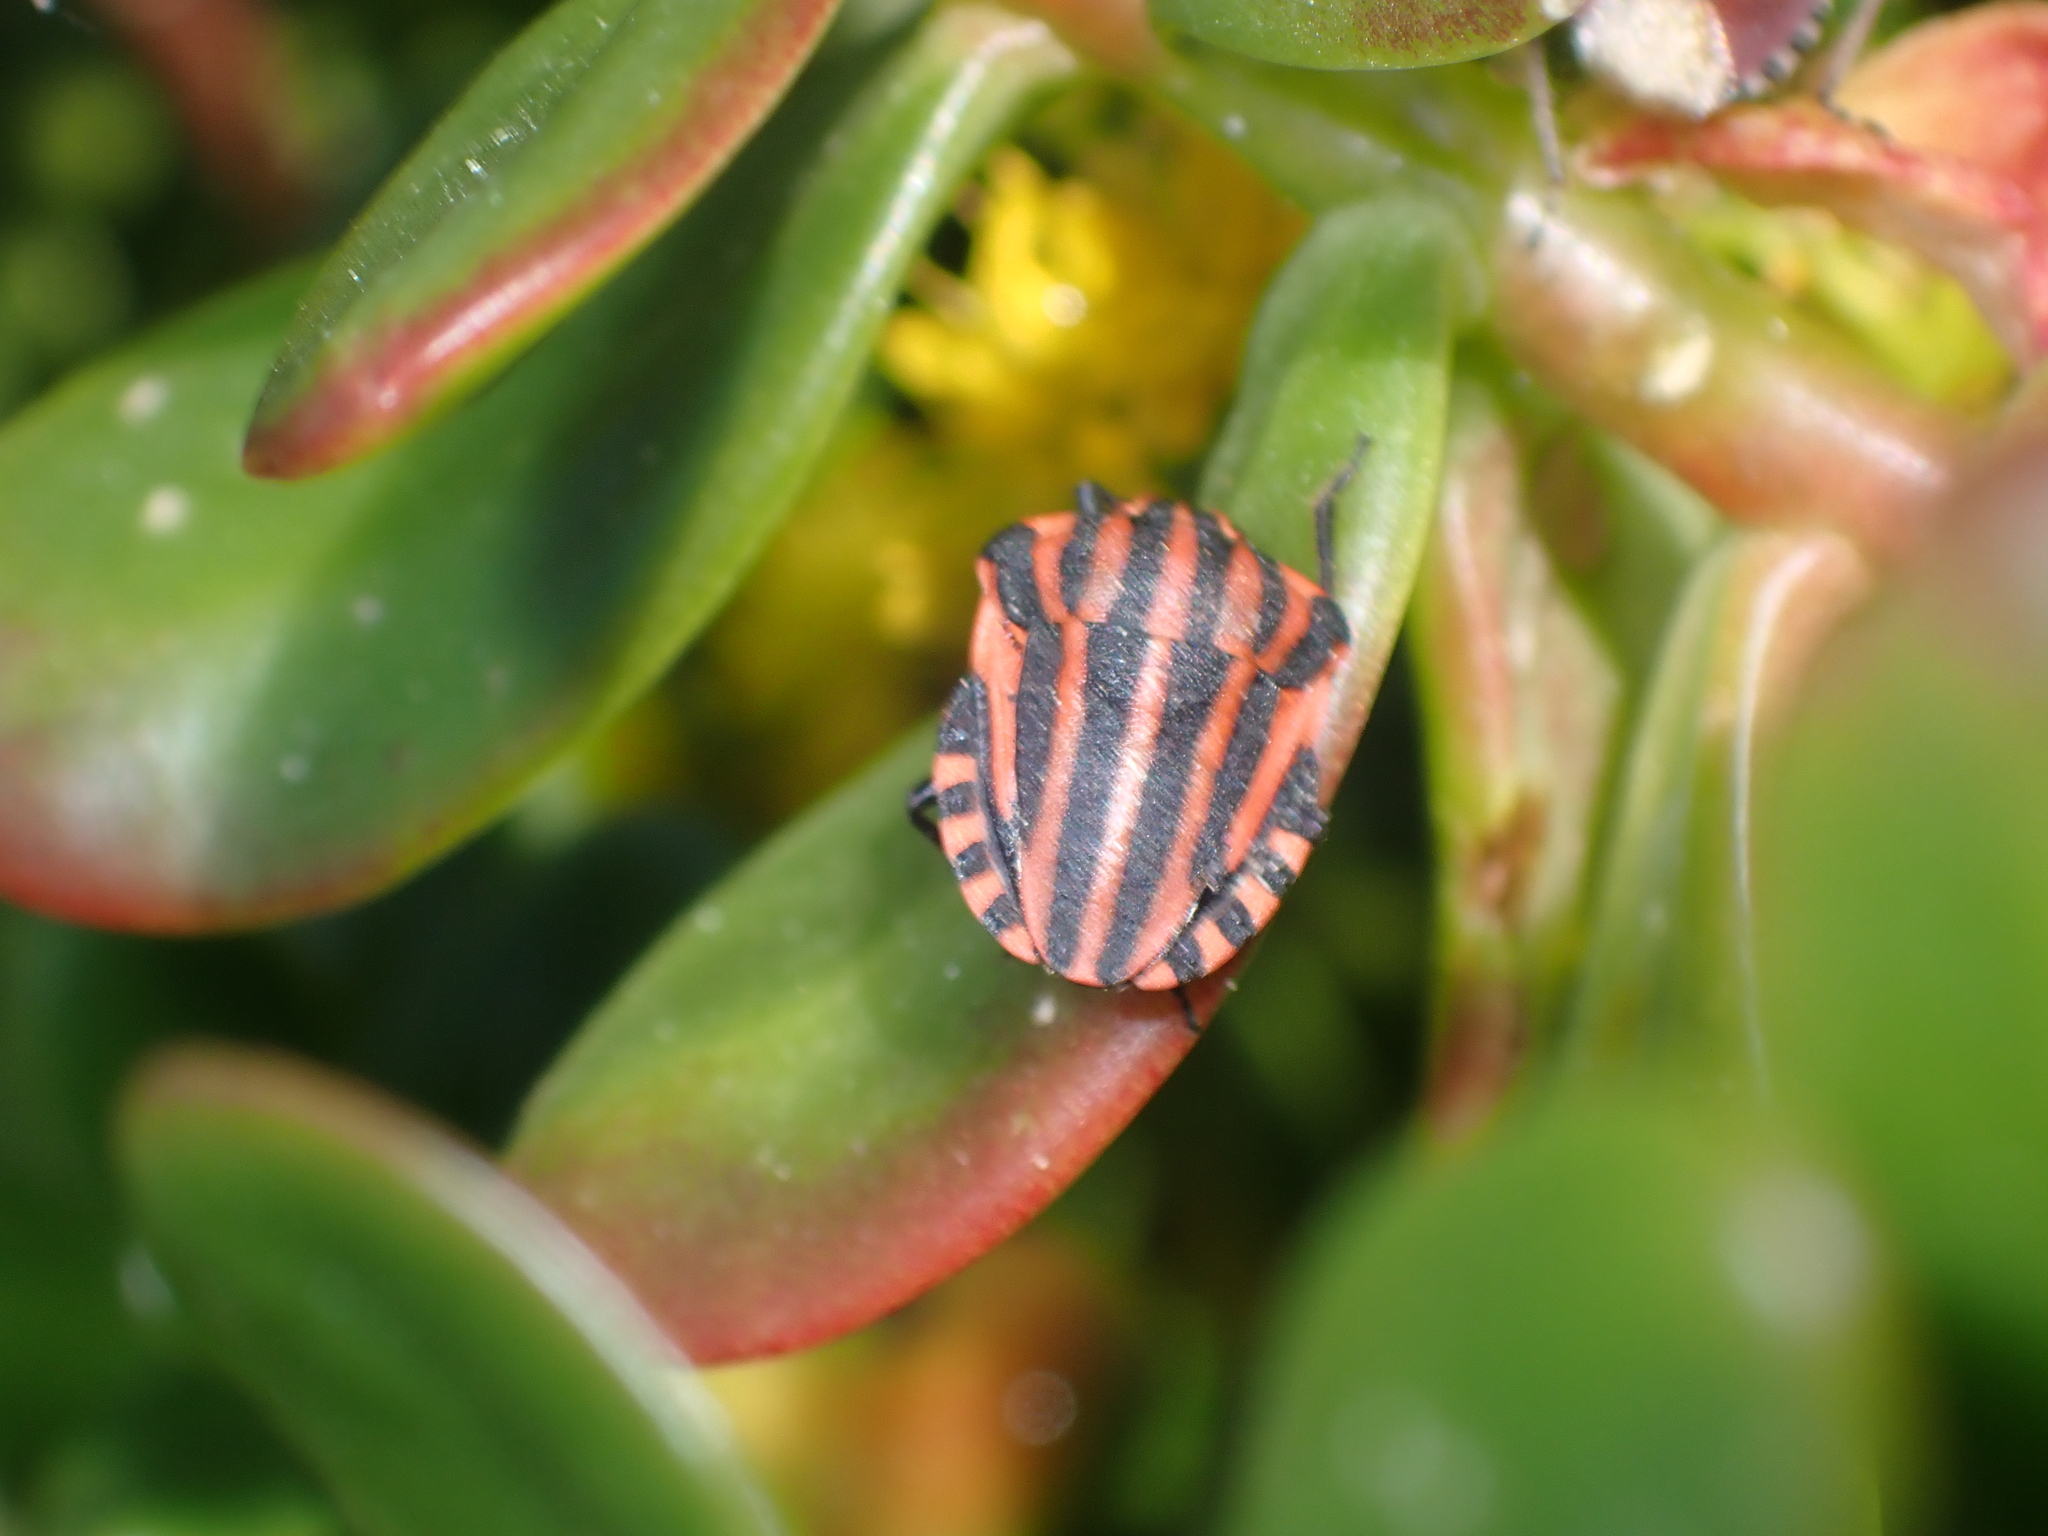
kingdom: Animalia
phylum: Arthropoda
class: Insecta
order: Hemiptera
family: Pentatomidae
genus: Graphosoma
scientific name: Graphosoma italicum
